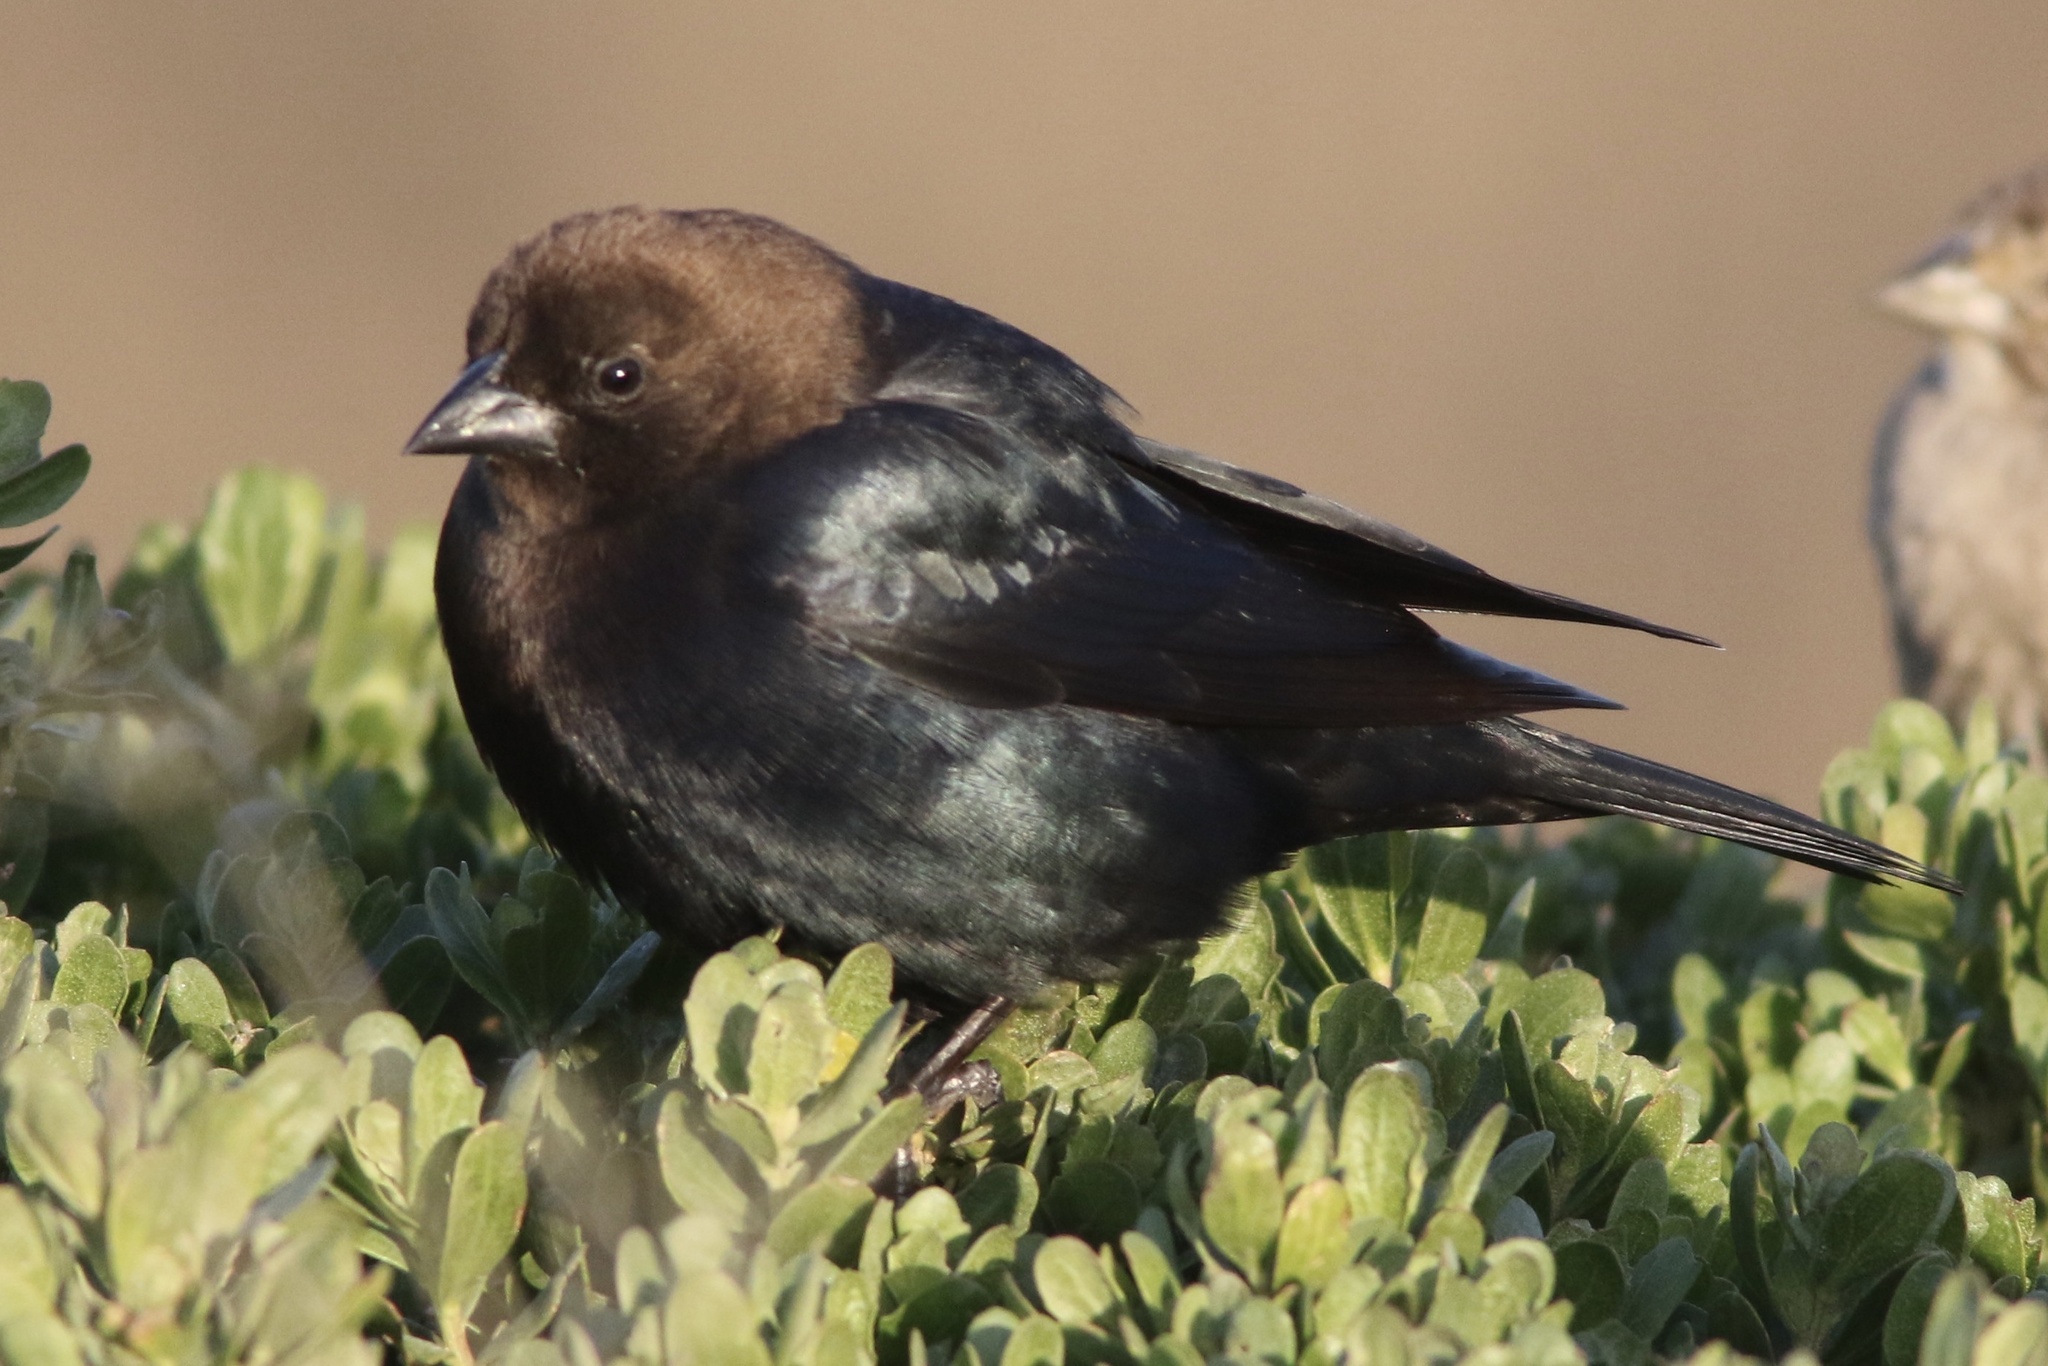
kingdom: Animalia
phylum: Chordata
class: Aves
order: Passeriformes
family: Icteridae
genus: Molothrus
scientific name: Molothrus ater
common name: Brown-headed cowbird
